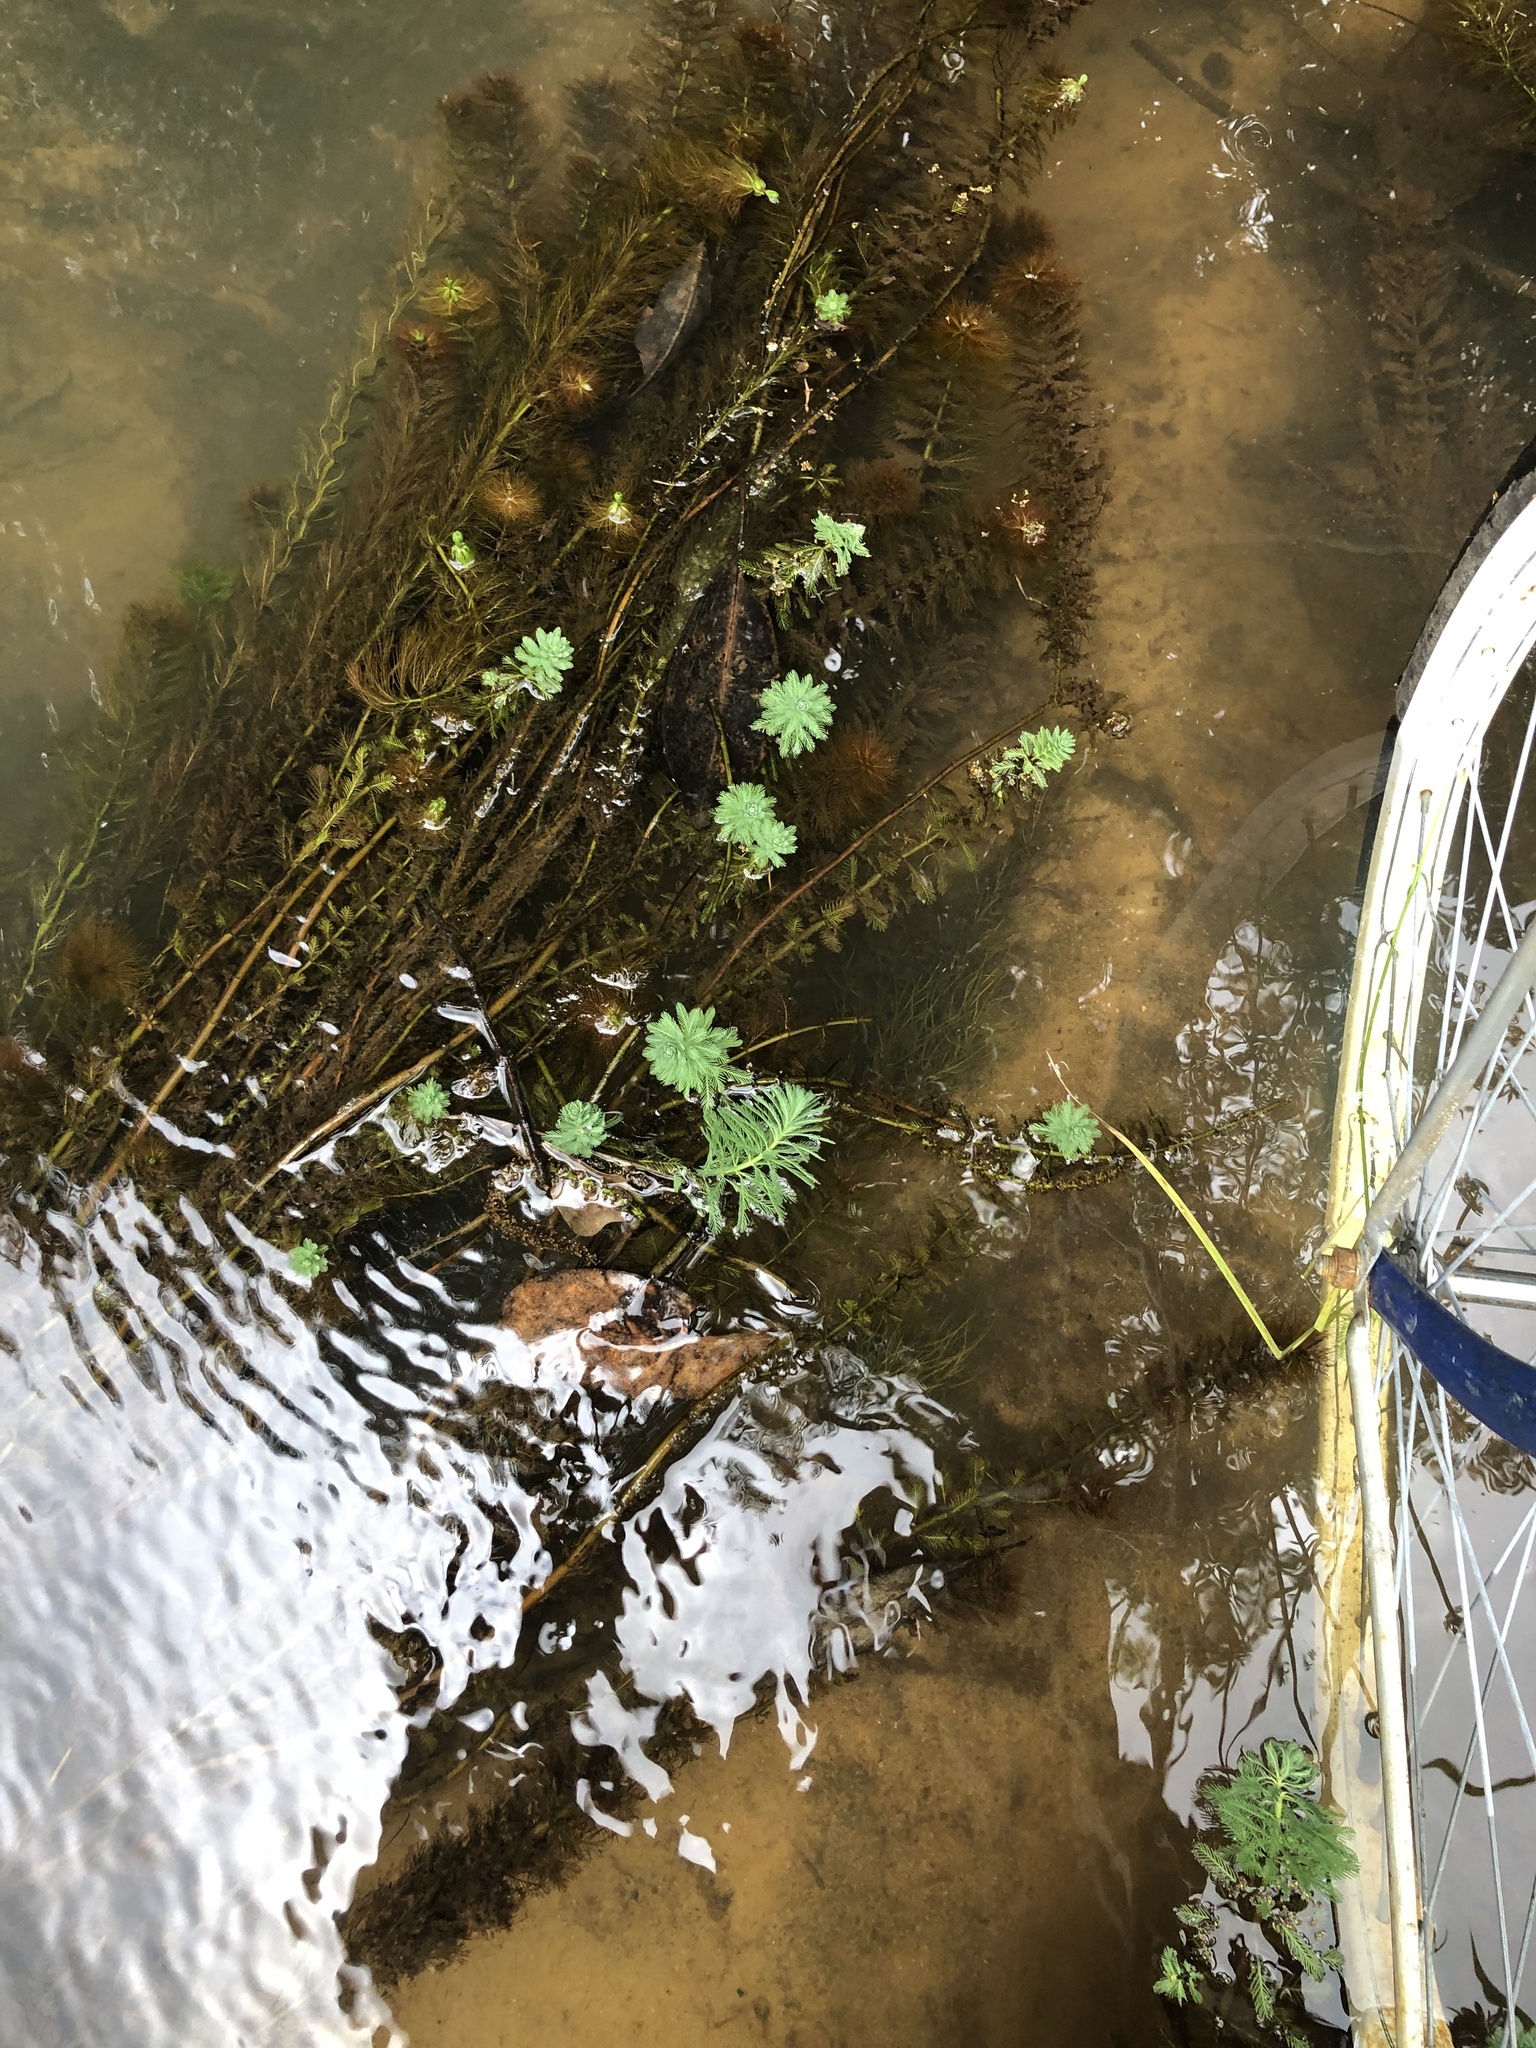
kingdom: Plantae
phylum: Tracheophyta
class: Magnoliopsida
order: Saxifragales
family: Haloragaceae
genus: Myriophyllum
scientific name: Myriophyllum aquaticum
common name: Parrot's feather
